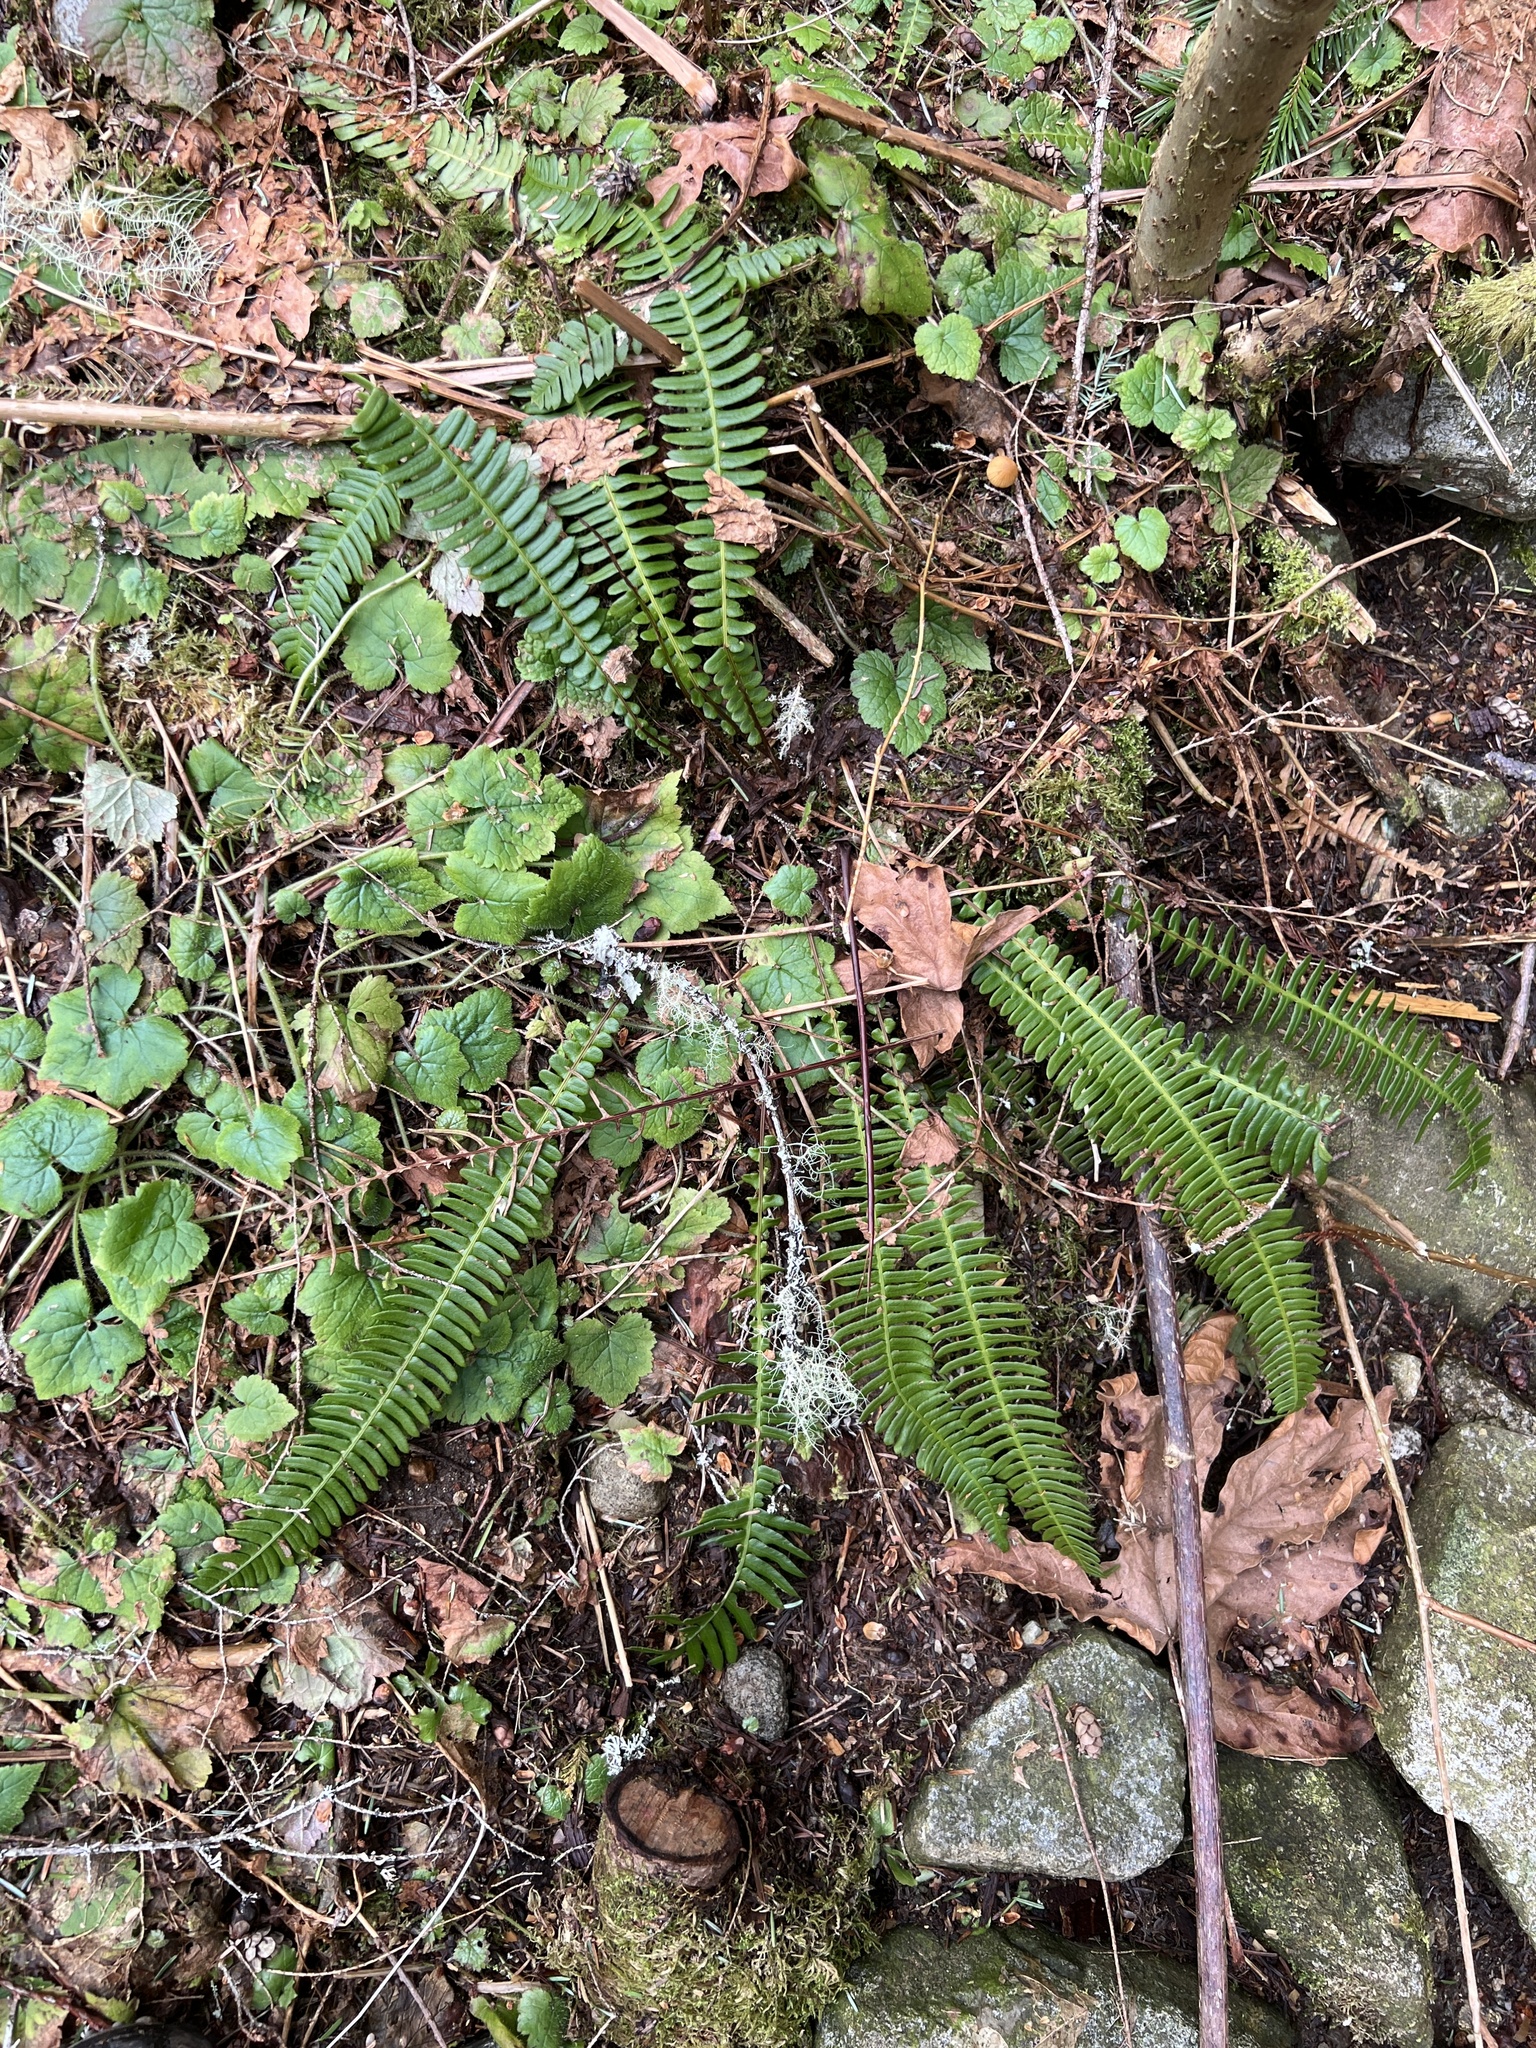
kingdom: Plantae
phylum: Tracheophyta
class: Polypodiopsida
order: Polypodiales
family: Blechnaceae
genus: Struthiopteris
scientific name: Struthiopteris spicant
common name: Deer fern
